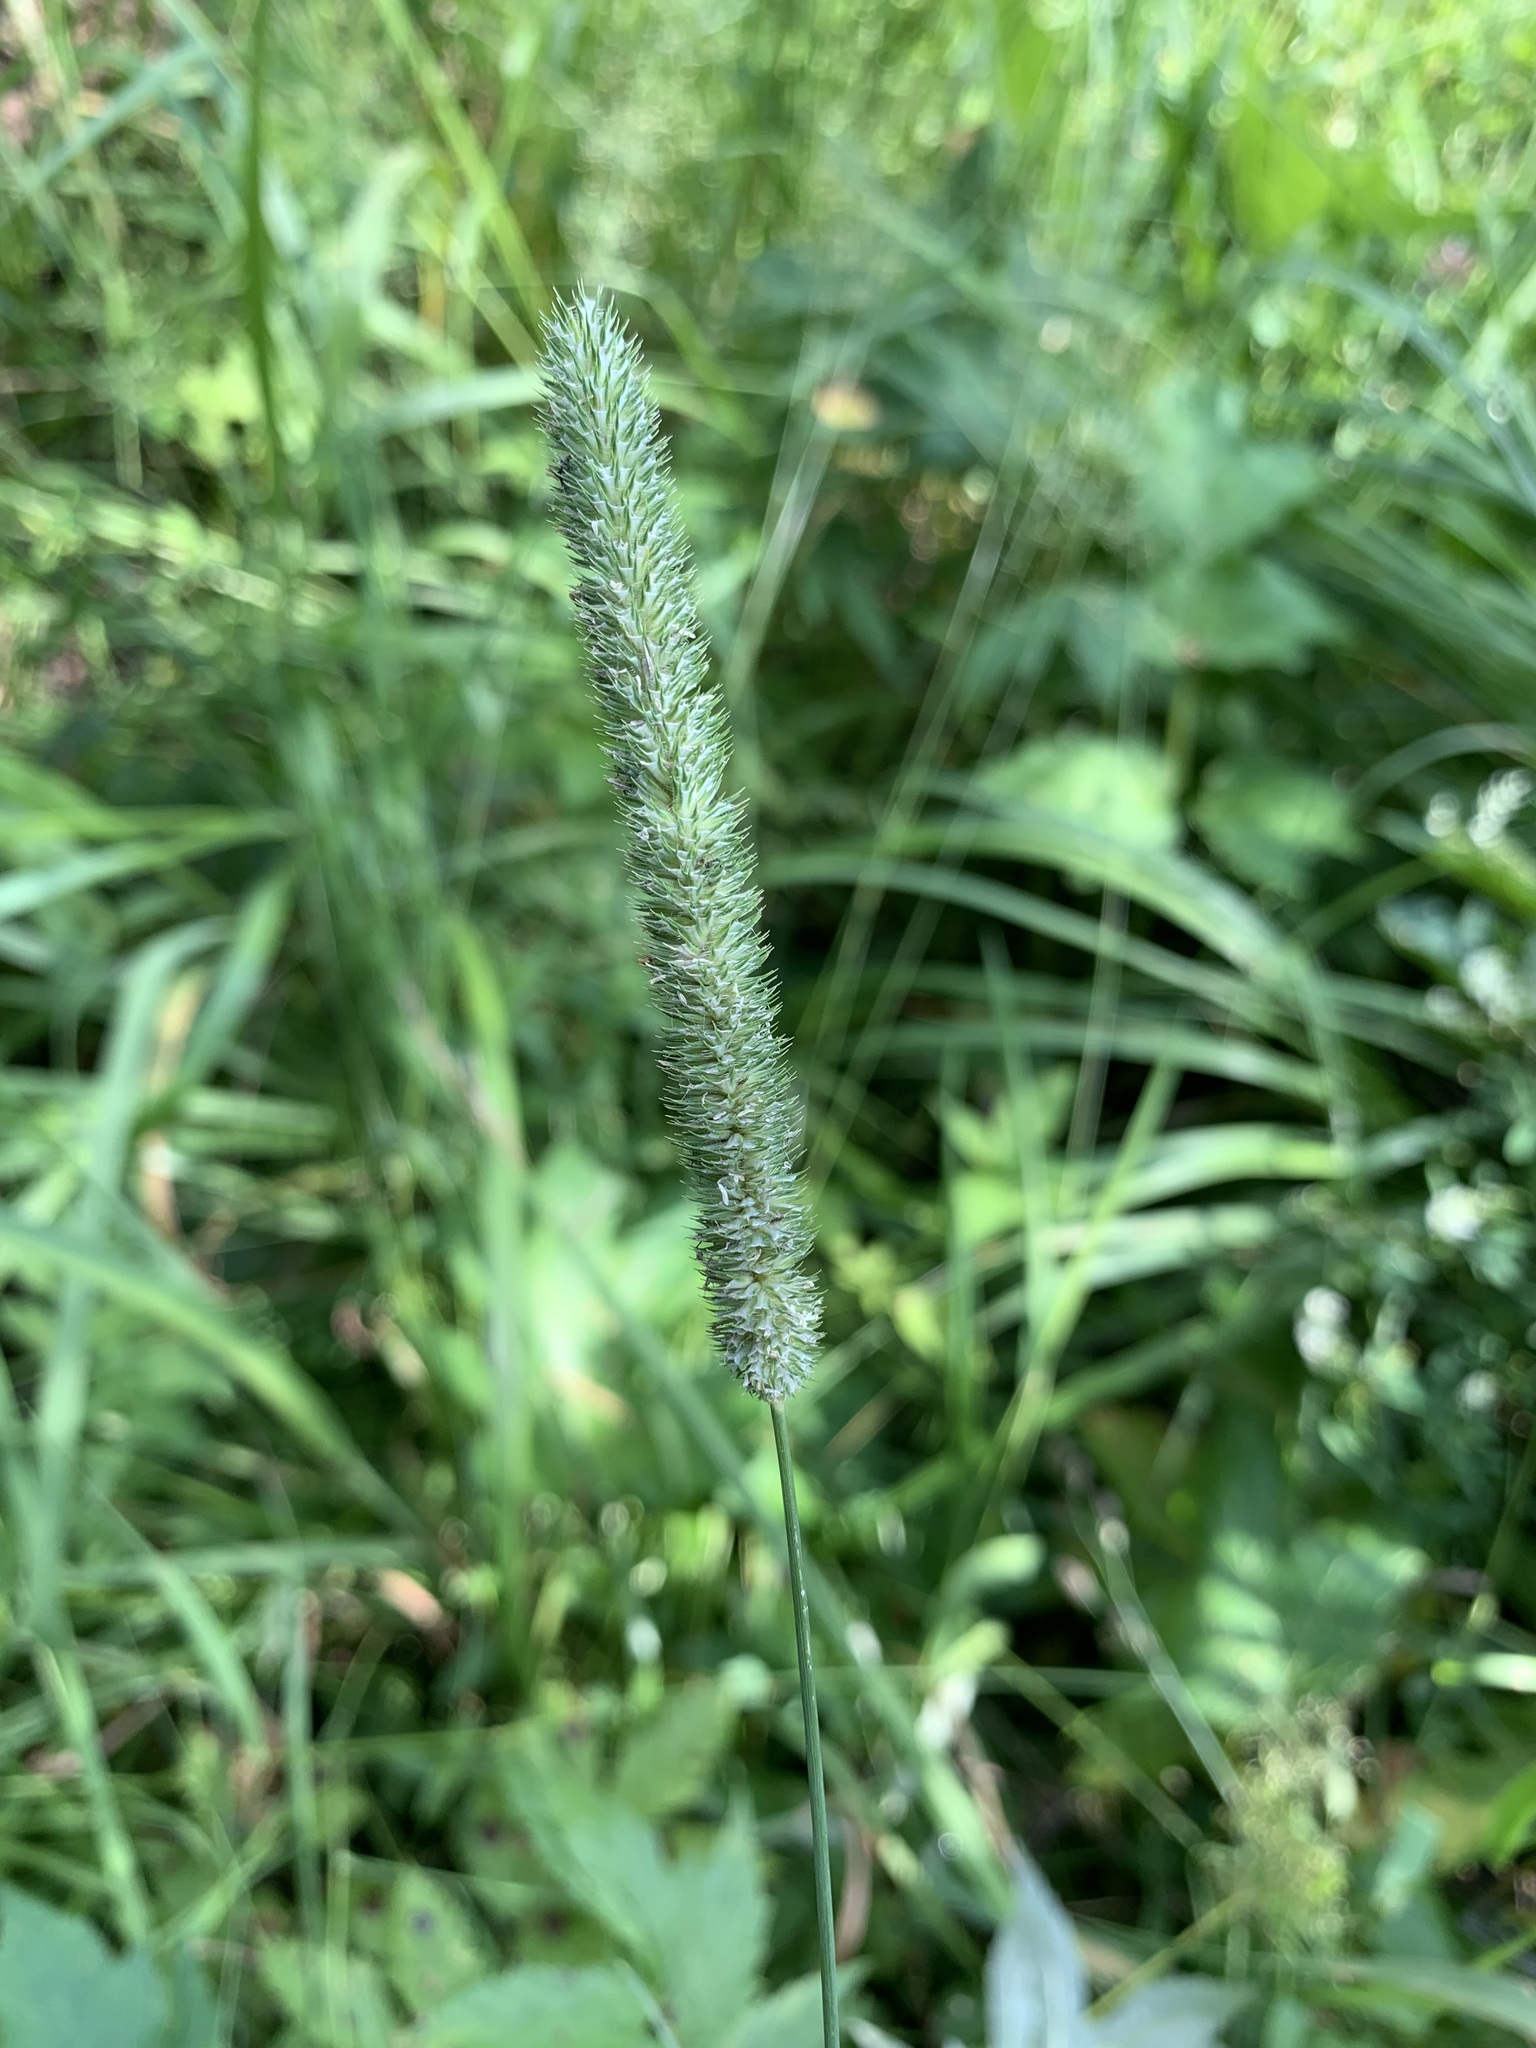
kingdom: Plantae
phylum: Tracheophyta
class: Liliopsida
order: Poales
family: Poaceae
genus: Phleum
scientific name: Phleum pratense
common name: Timothy grass
